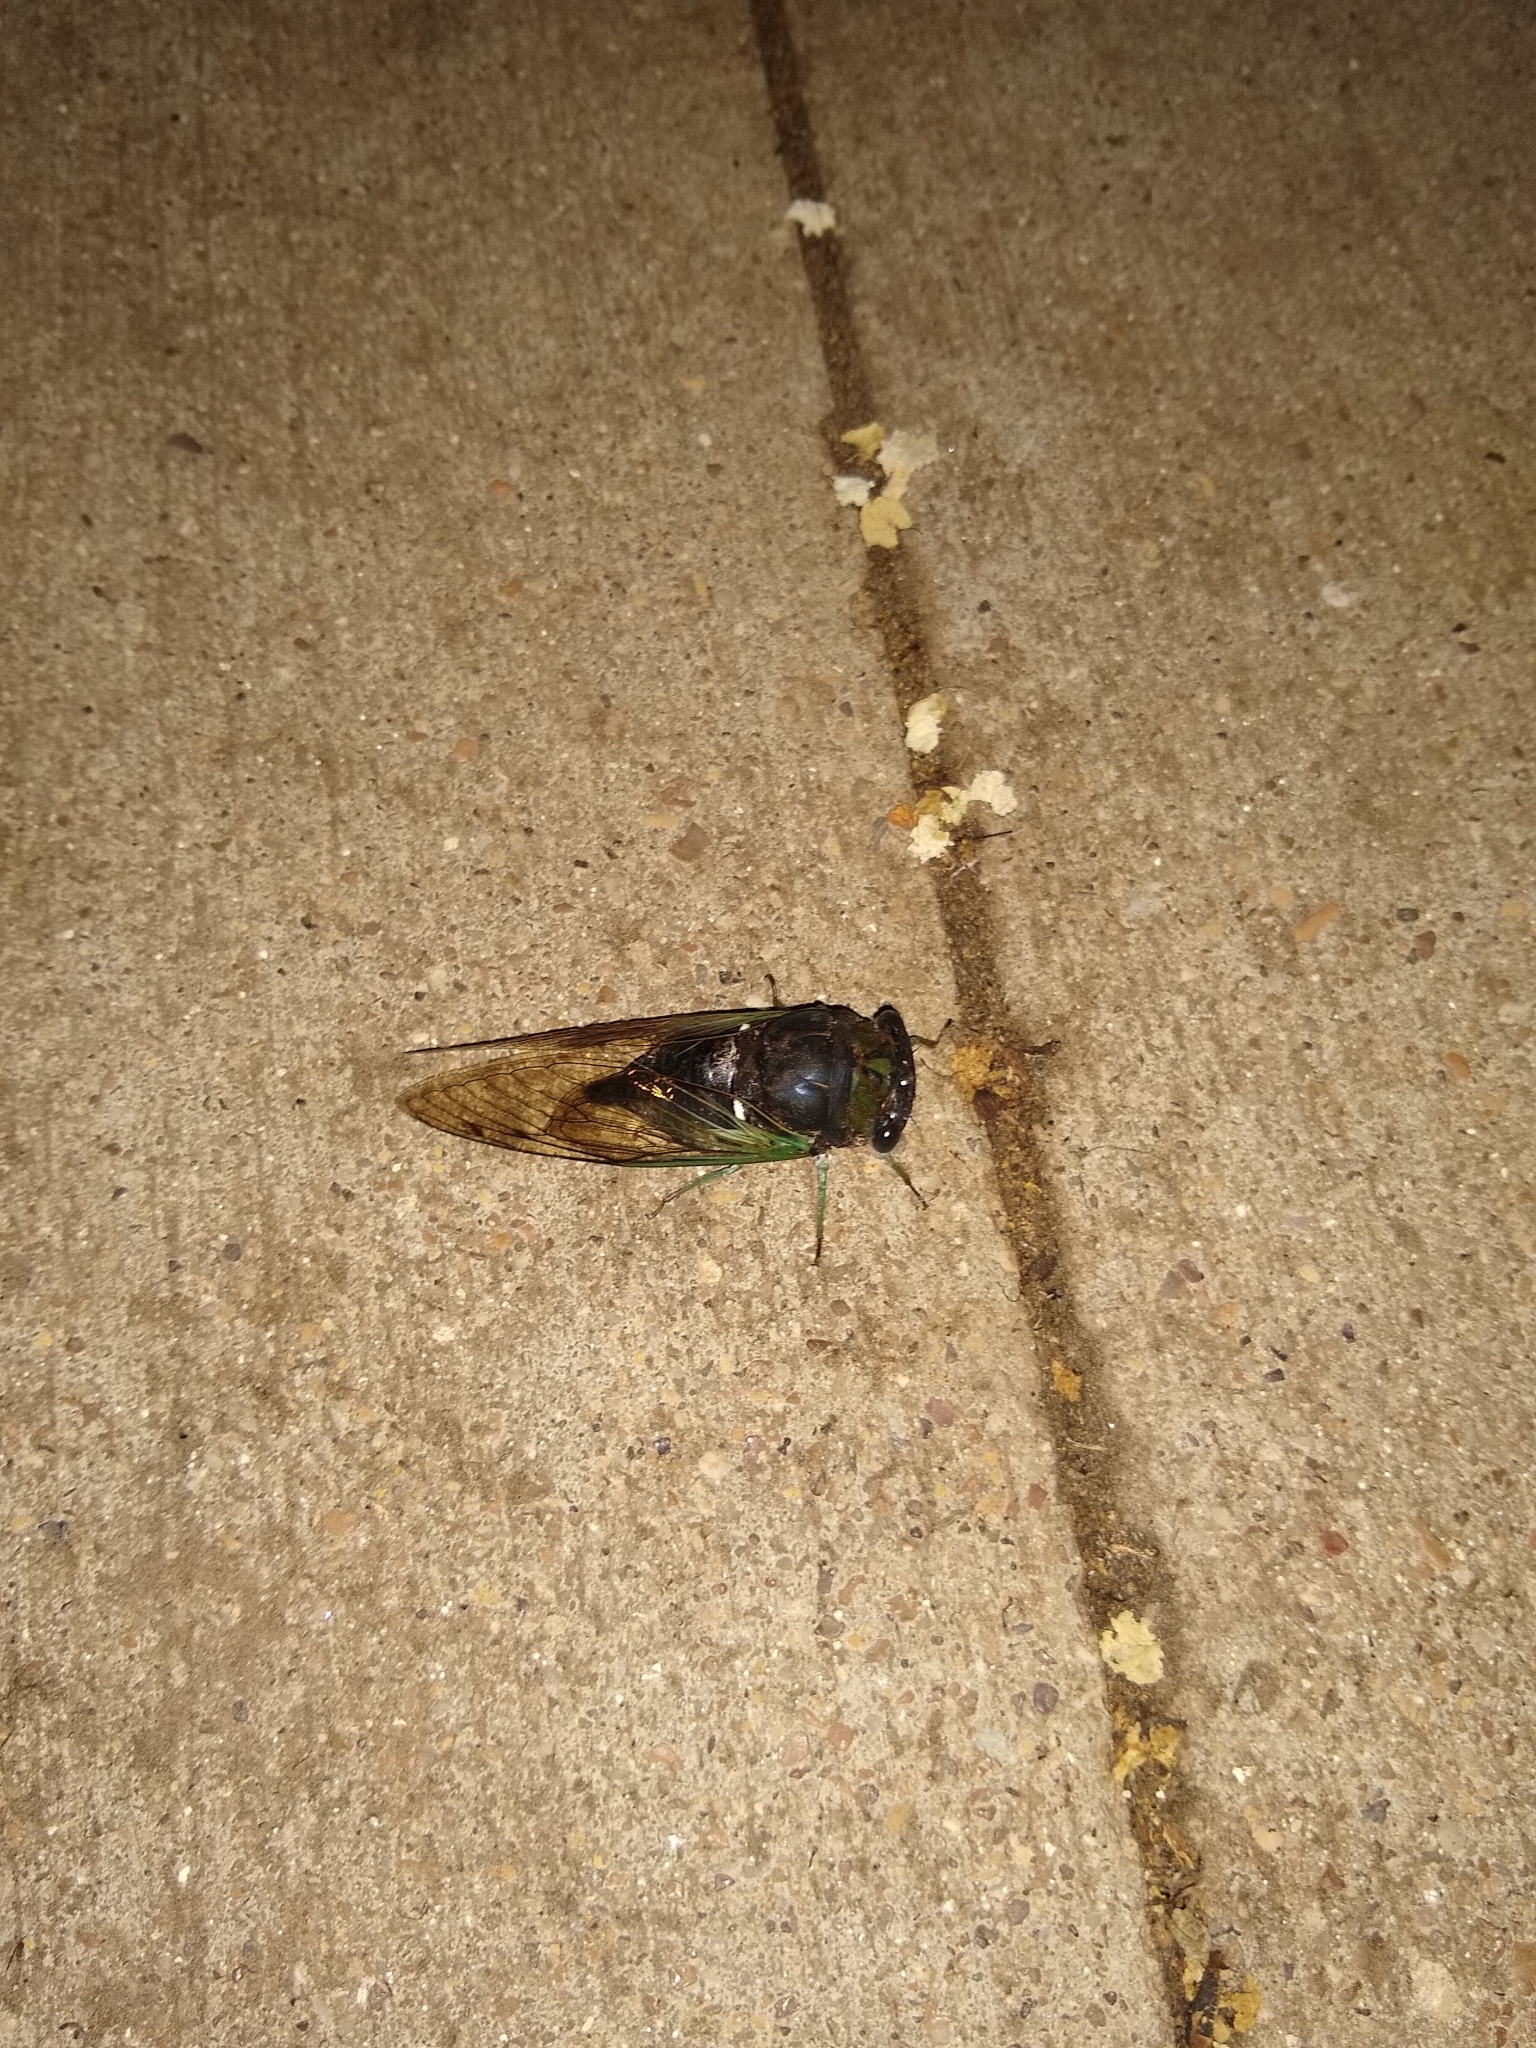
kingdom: Animalia
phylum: Arthropoda
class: Insecta
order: Hemiptera
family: Cicadidae
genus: Neotibicen
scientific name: Neotibicen tibicen
